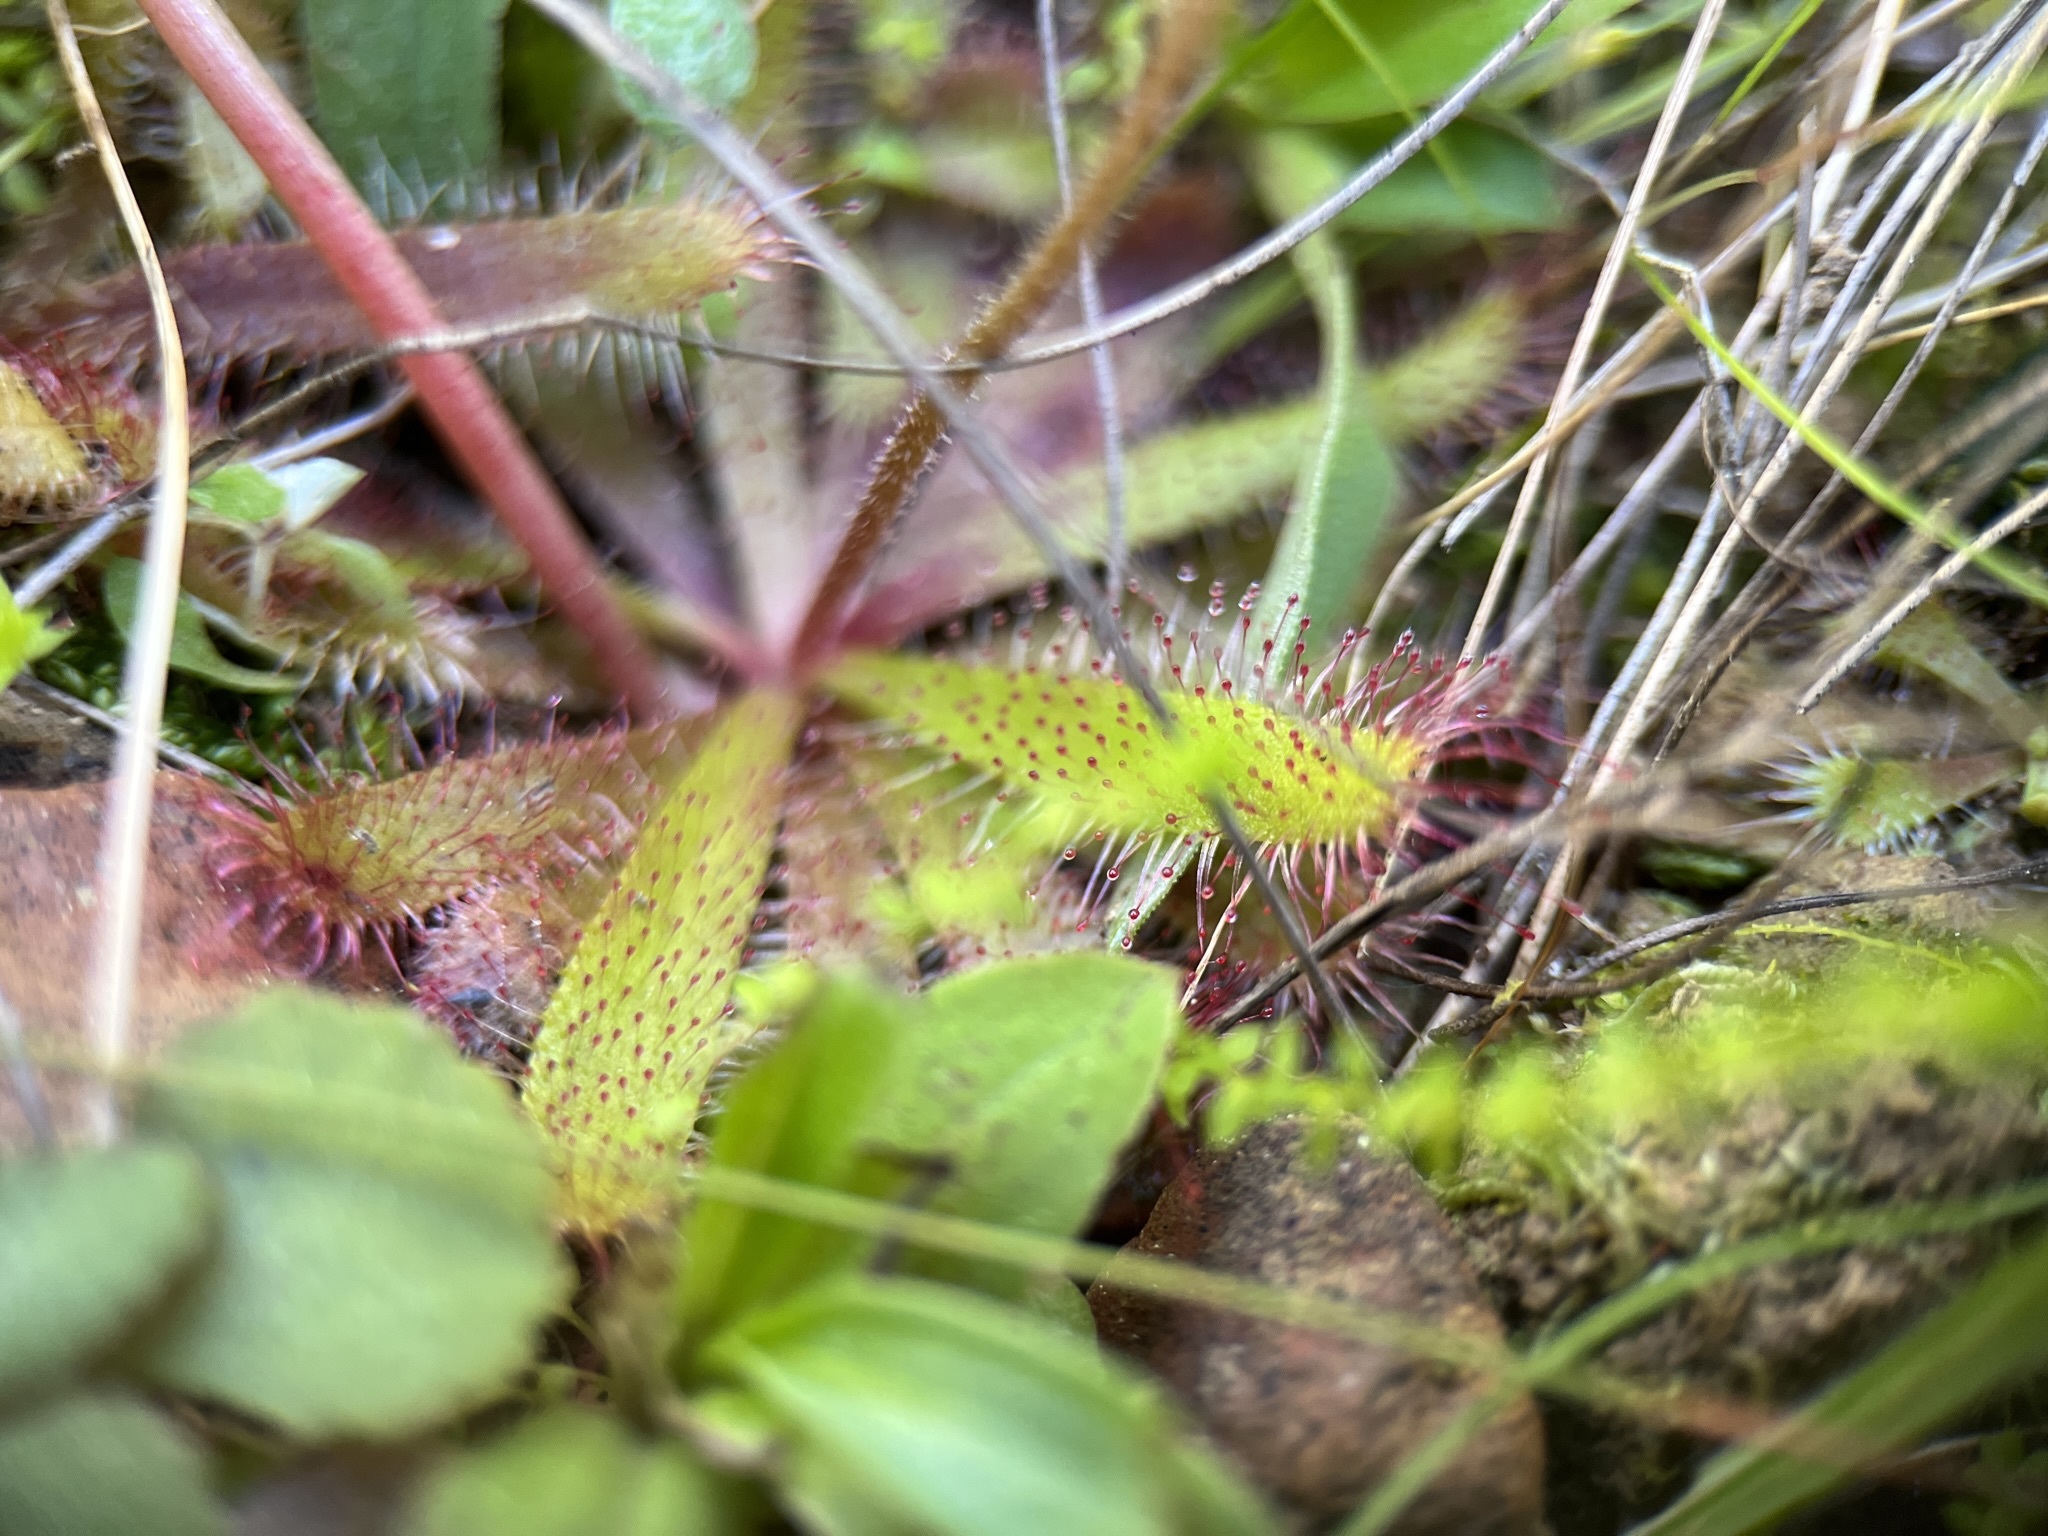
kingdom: Plantae
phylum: Tracheophyta
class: Magnoliopsida
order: Caryophyllales
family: Droseraceae
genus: Drosera
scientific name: Drosera coccipetala
